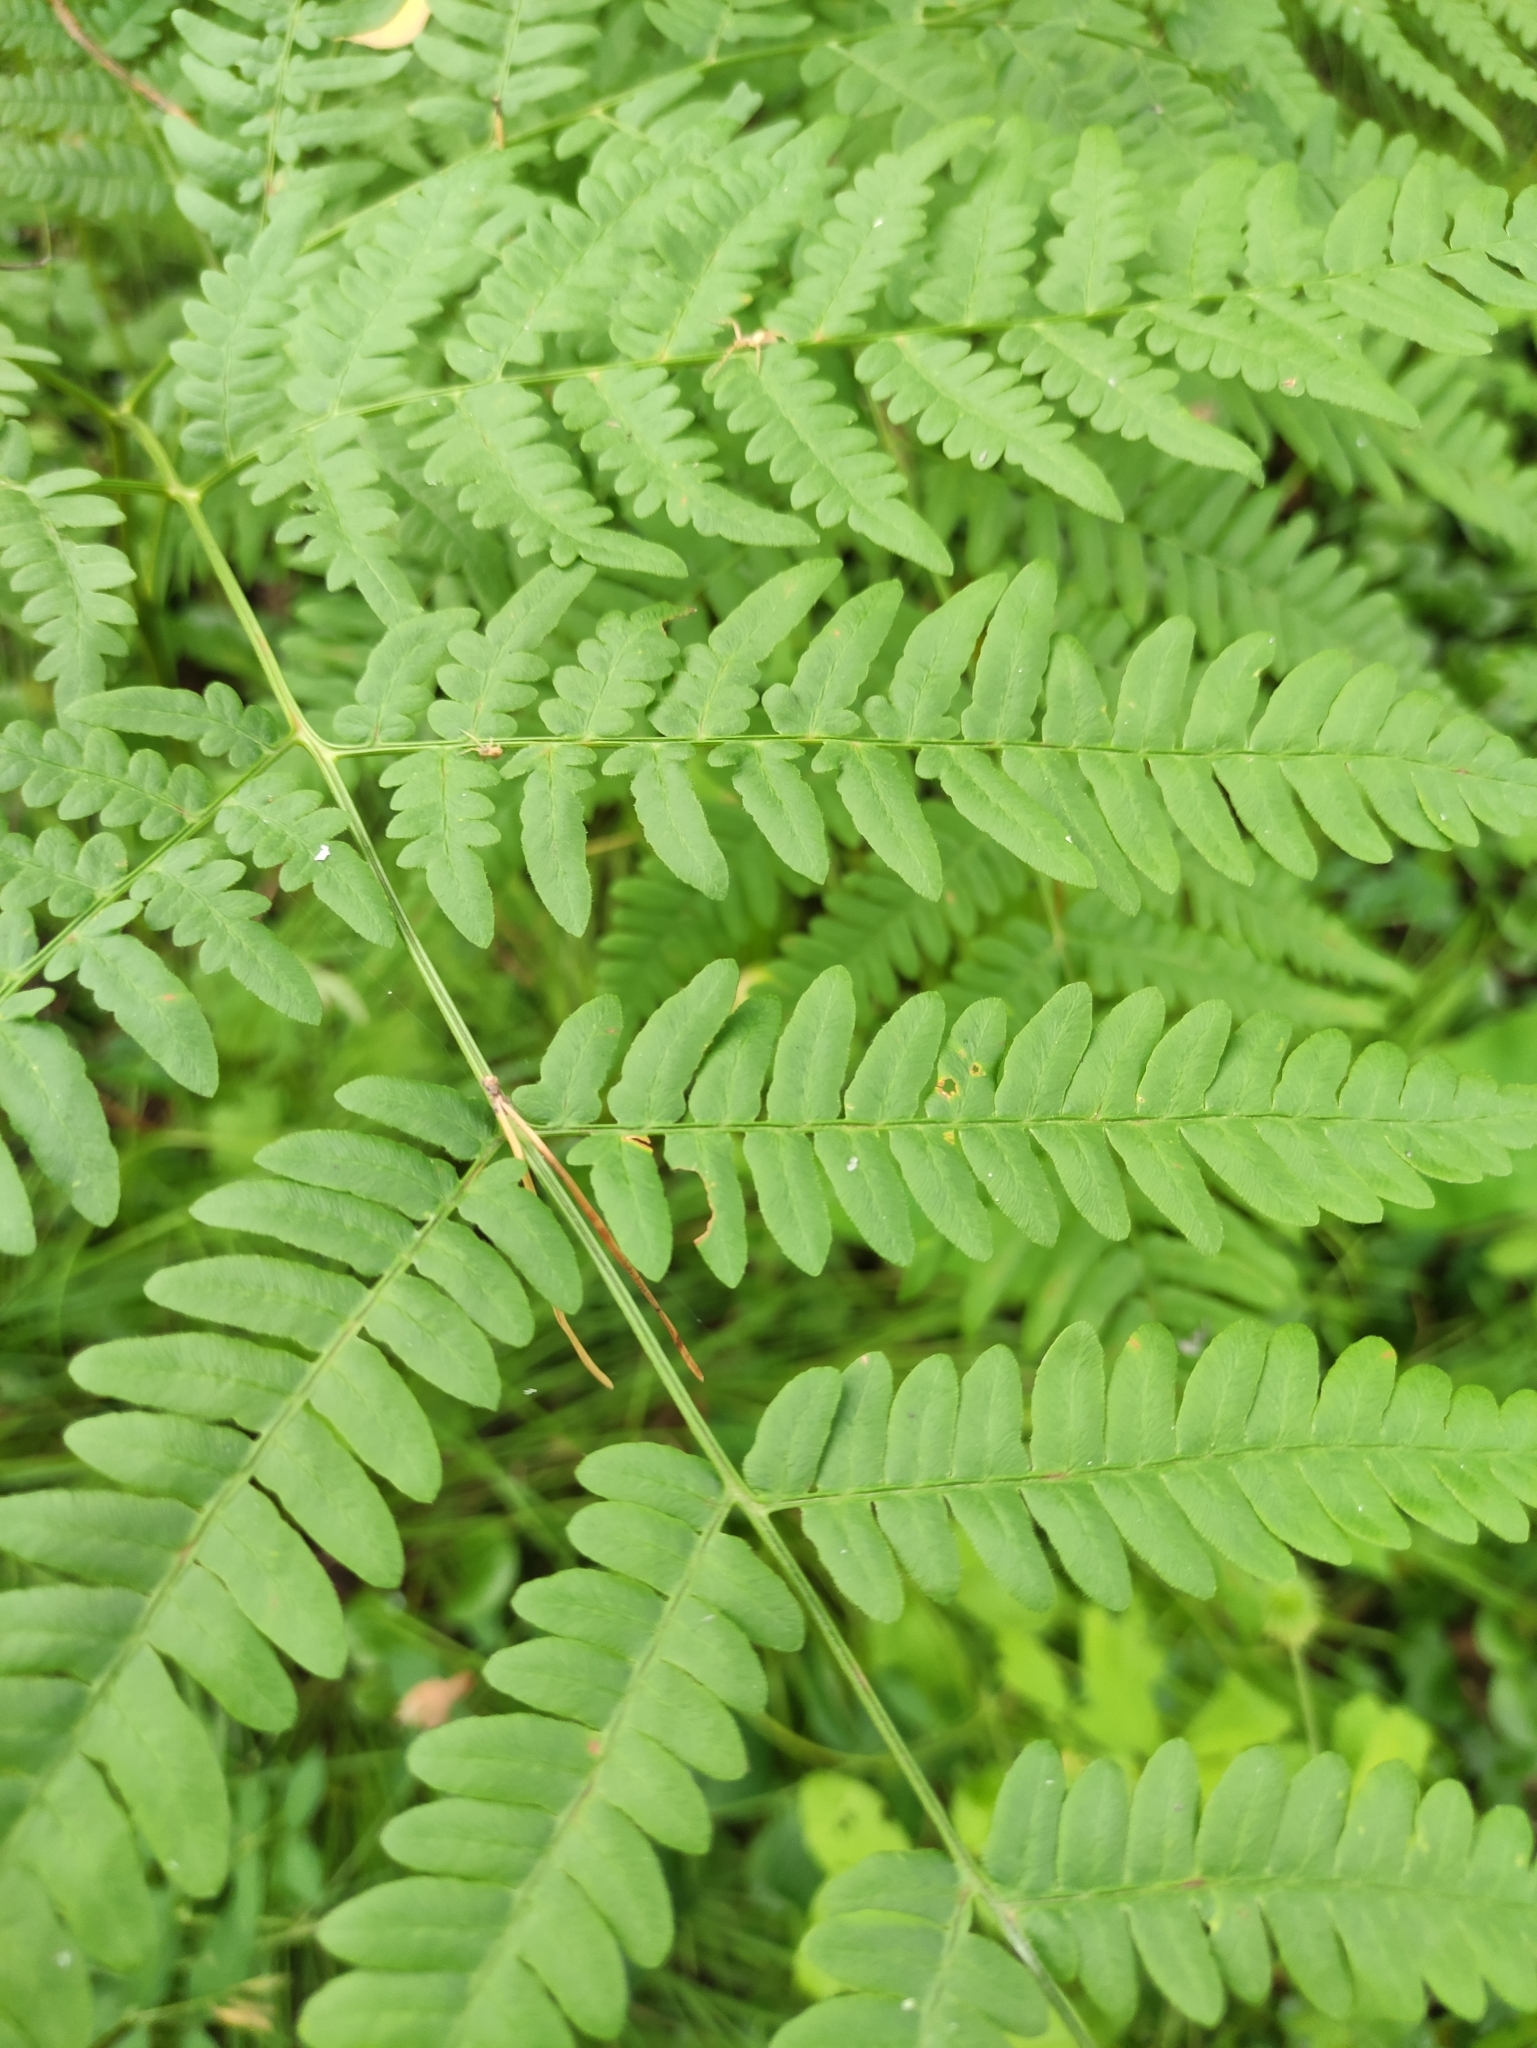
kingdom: Plantae
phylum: Tracheophyta
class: Polypodiopsida
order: Polypodiales
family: Dennstaedtiaceae
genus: Pteridium
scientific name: Pteridium aquilinum
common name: Bracken
